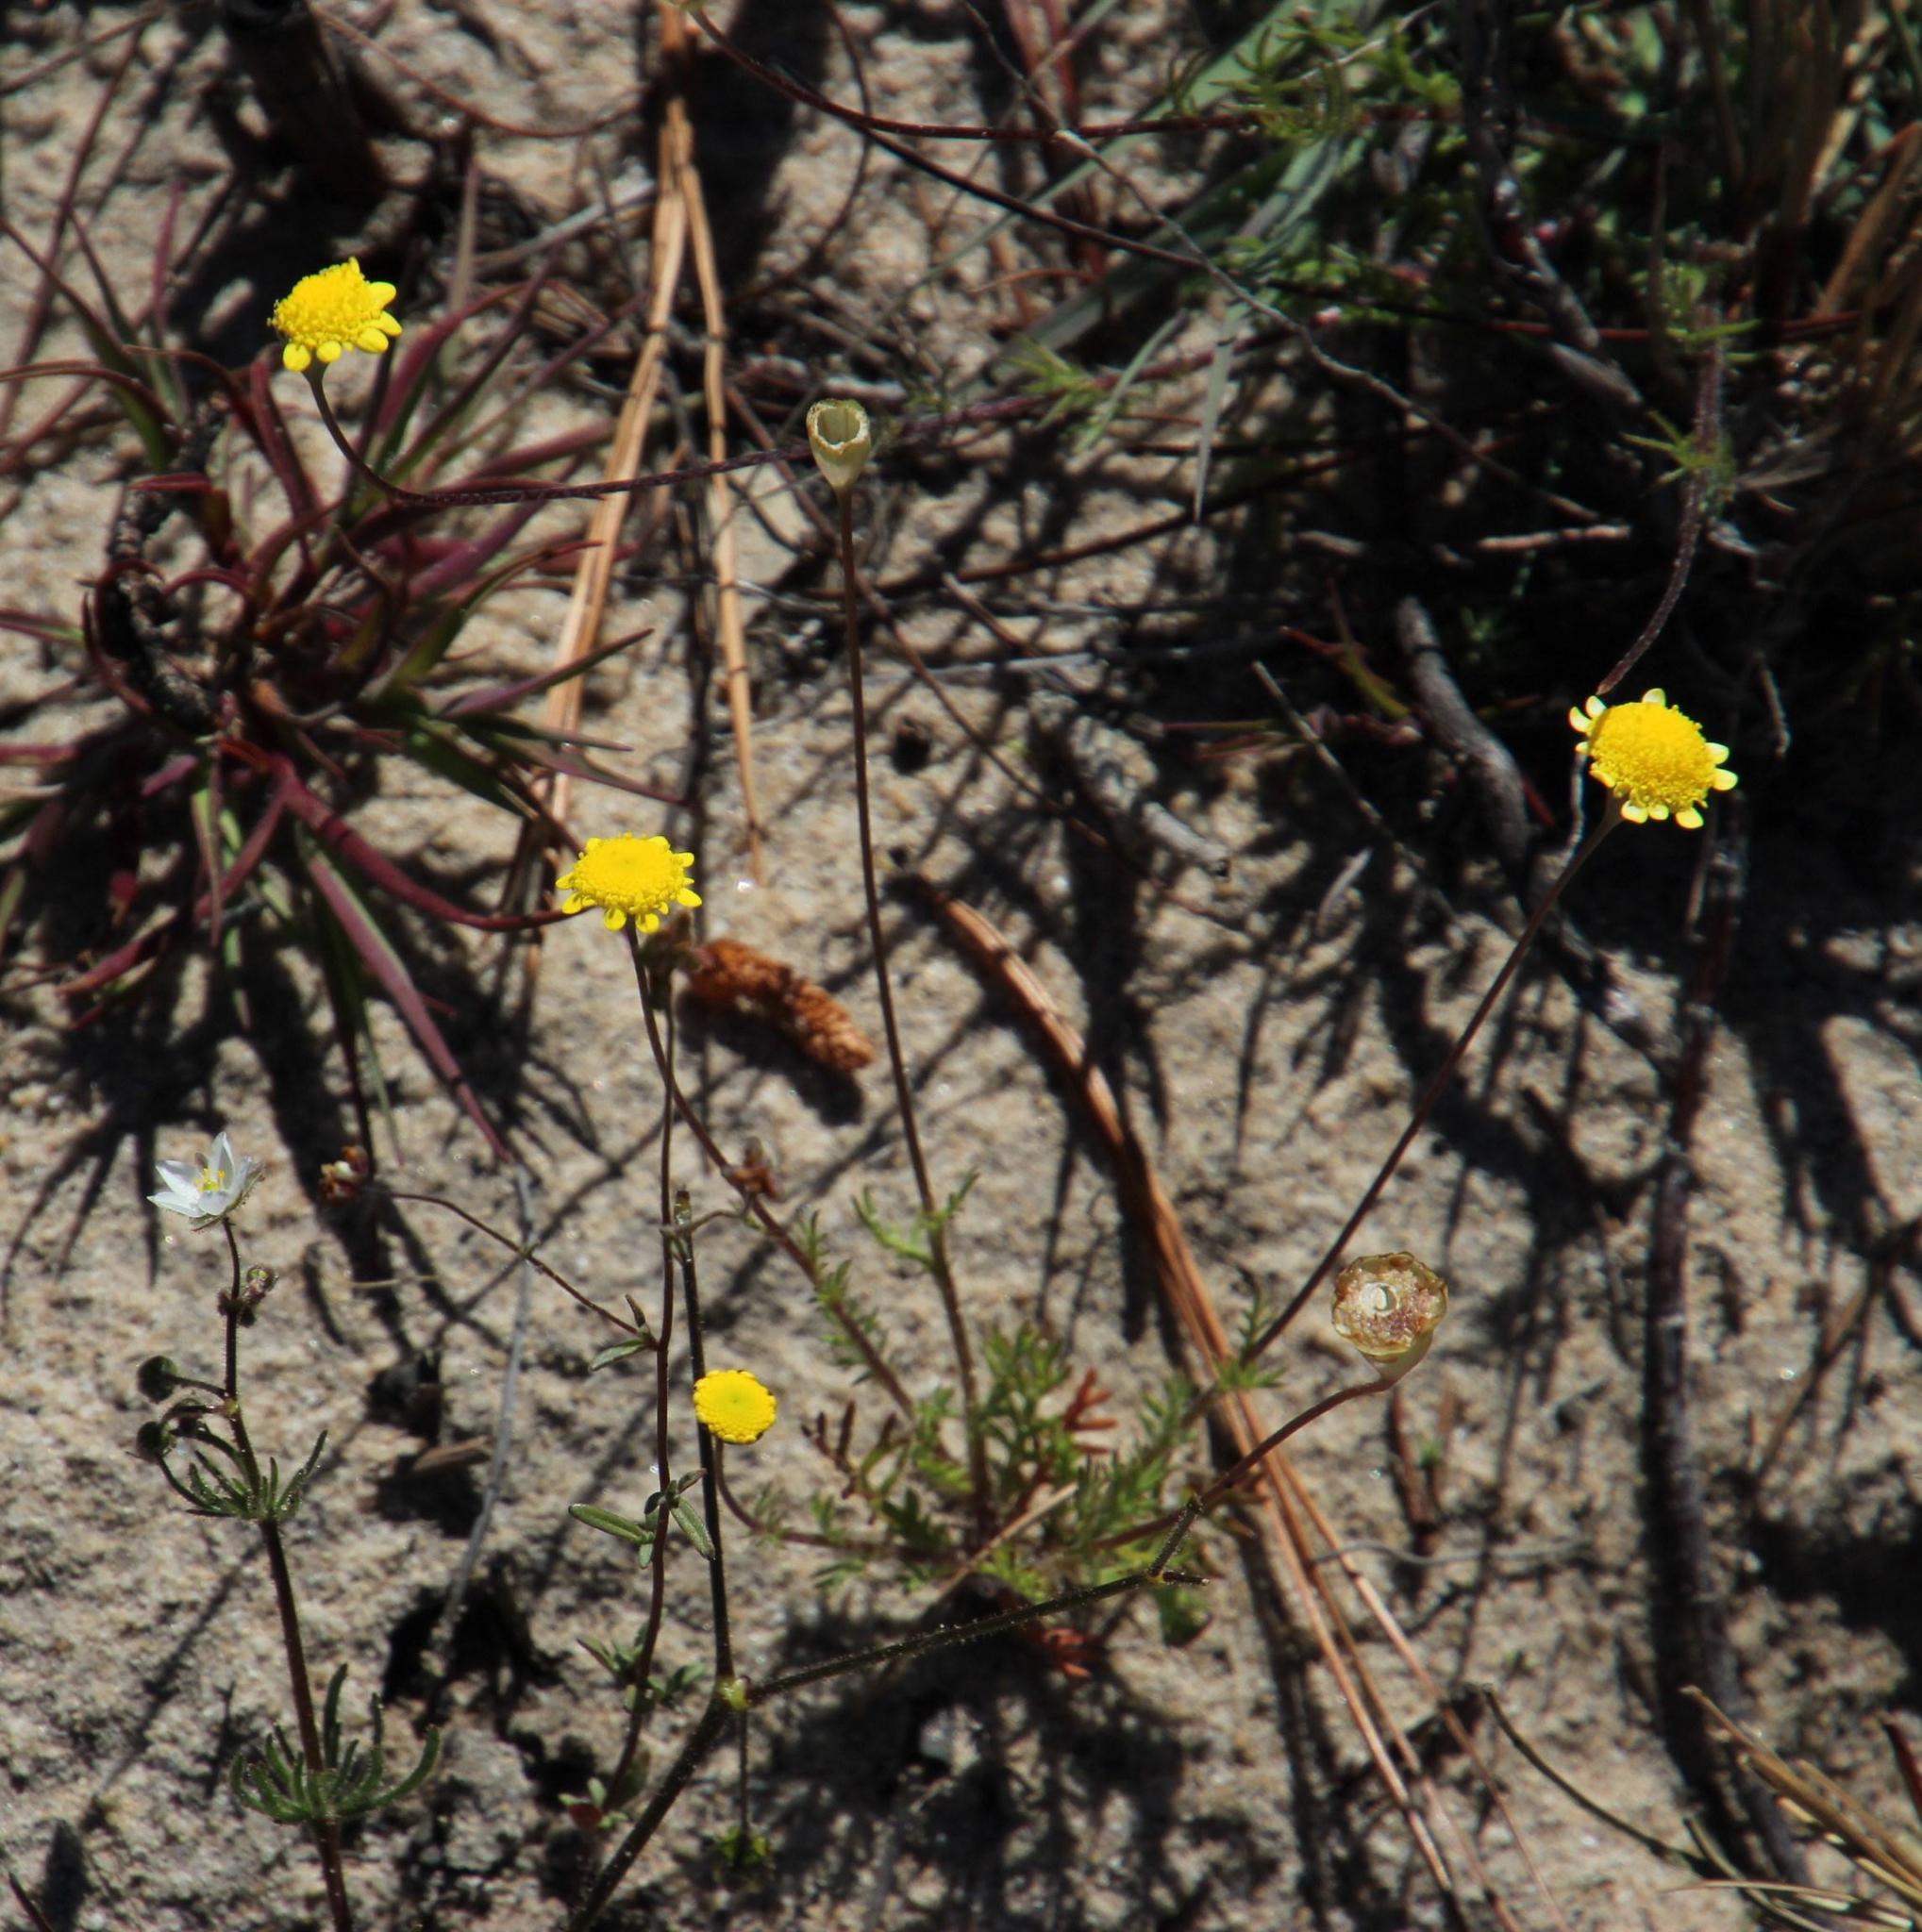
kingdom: Plantae
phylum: Tracheophyta
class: Magnoliopsida
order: Asterales
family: Asteraceae
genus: Cotula
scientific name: Cotula pruinosa
